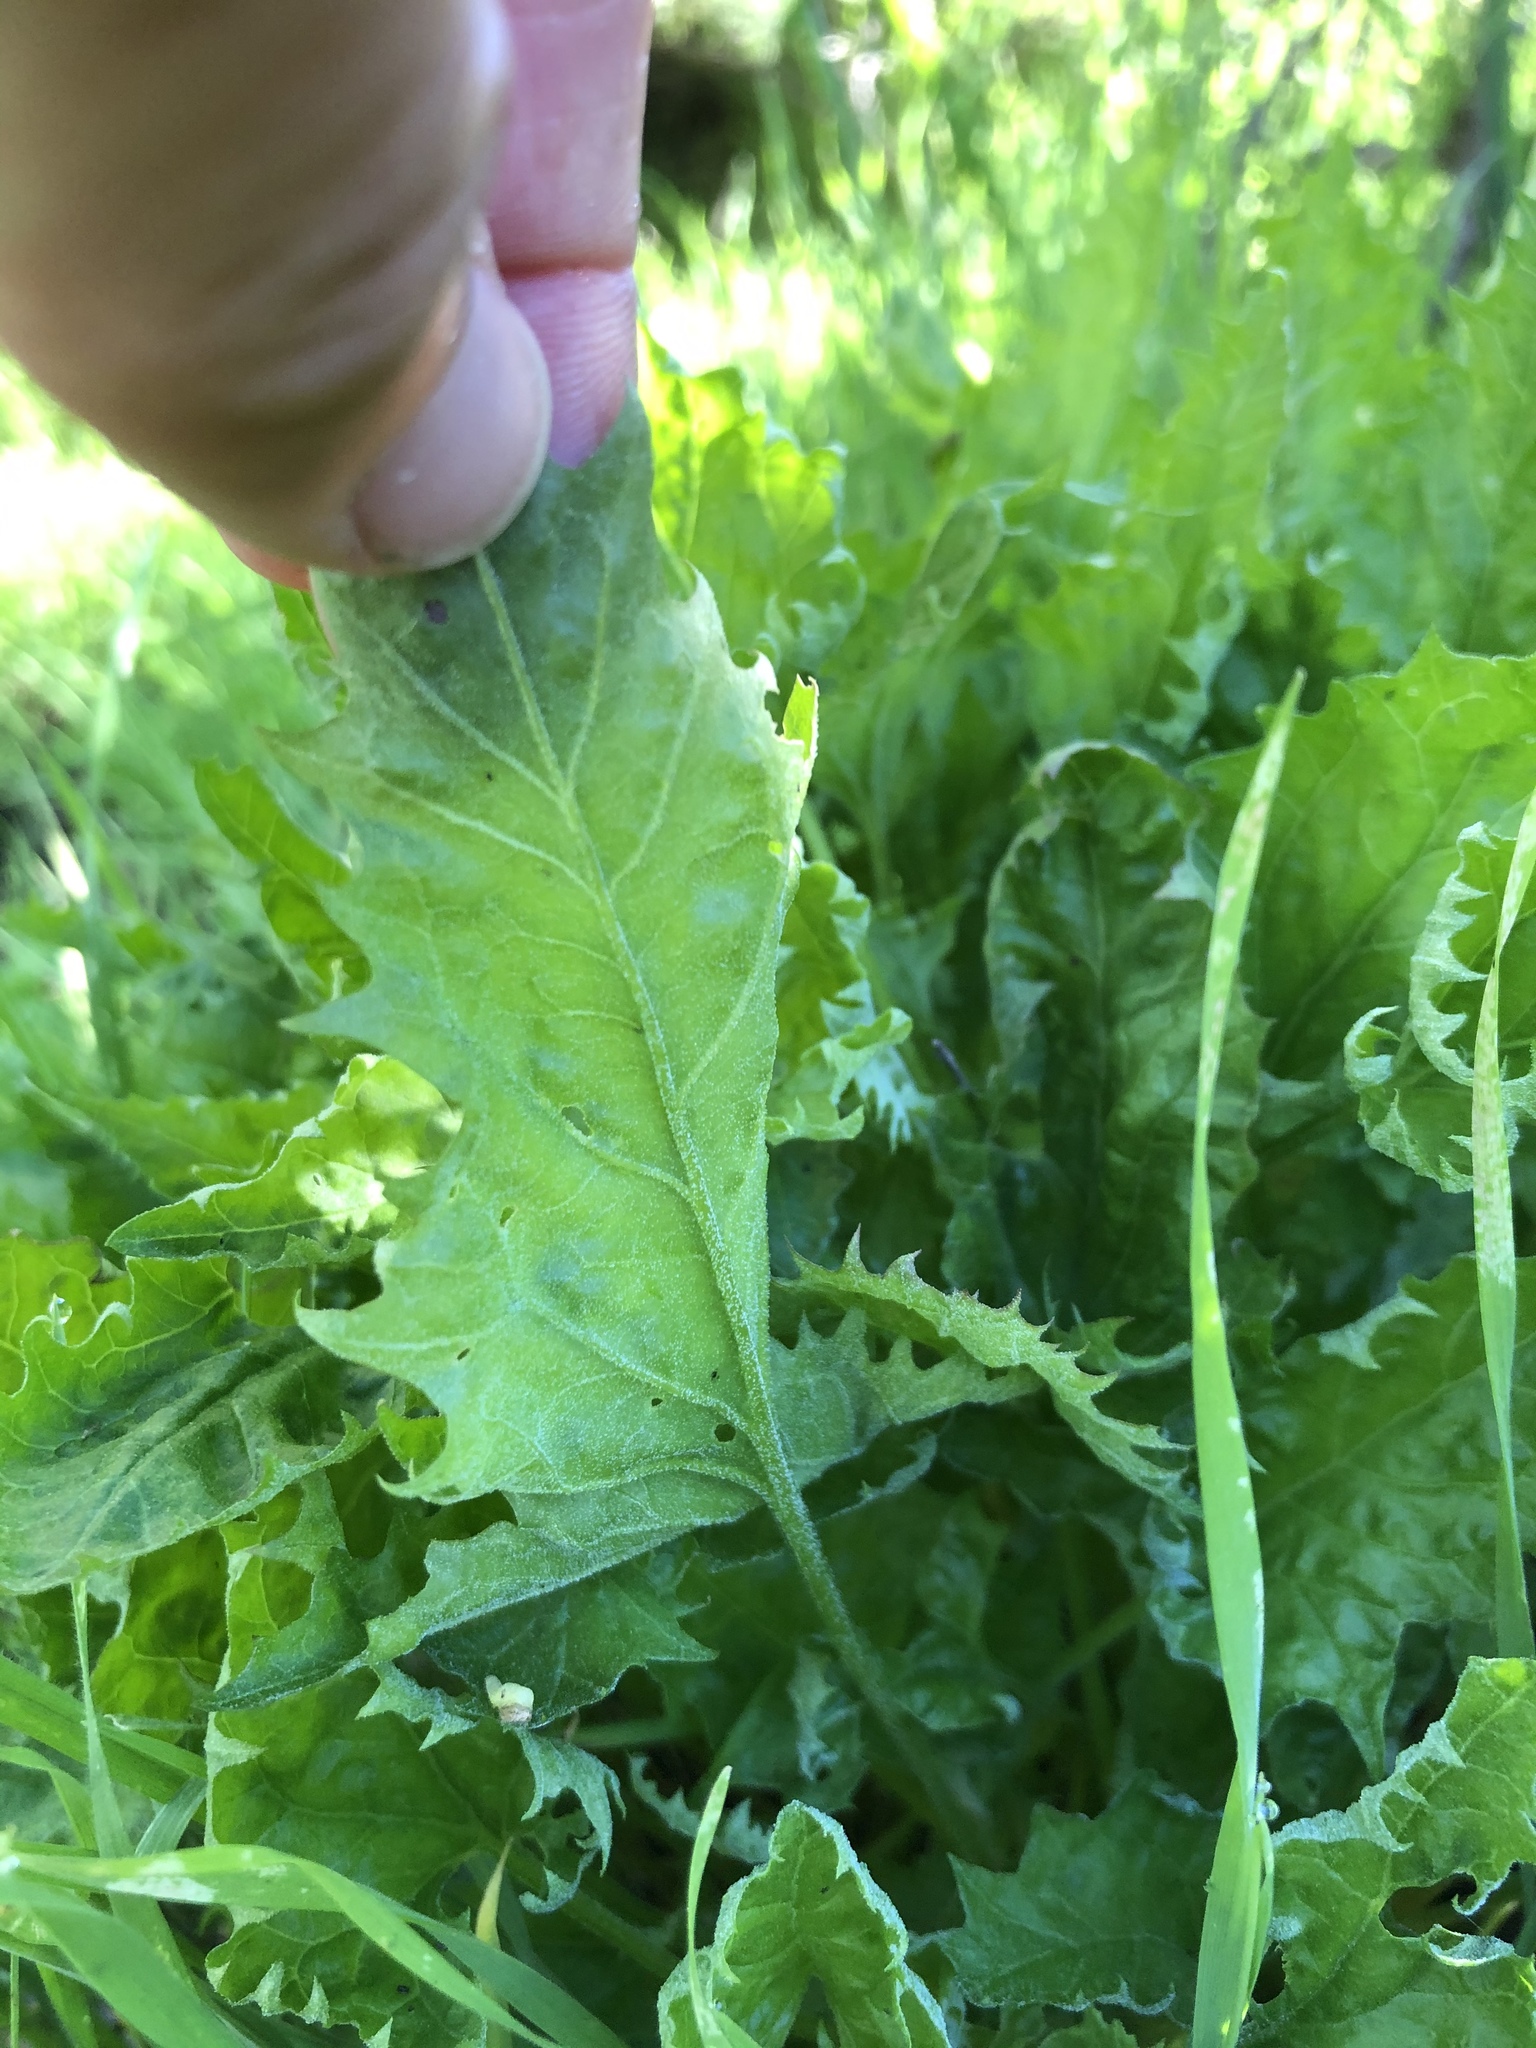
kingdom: Plantae
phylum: Tracheophyta
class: Magnoliopsida
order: Caryophyllales
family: Amaranthaceae
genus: Blitum
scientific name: Blitum californicum
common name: California goosefoot
